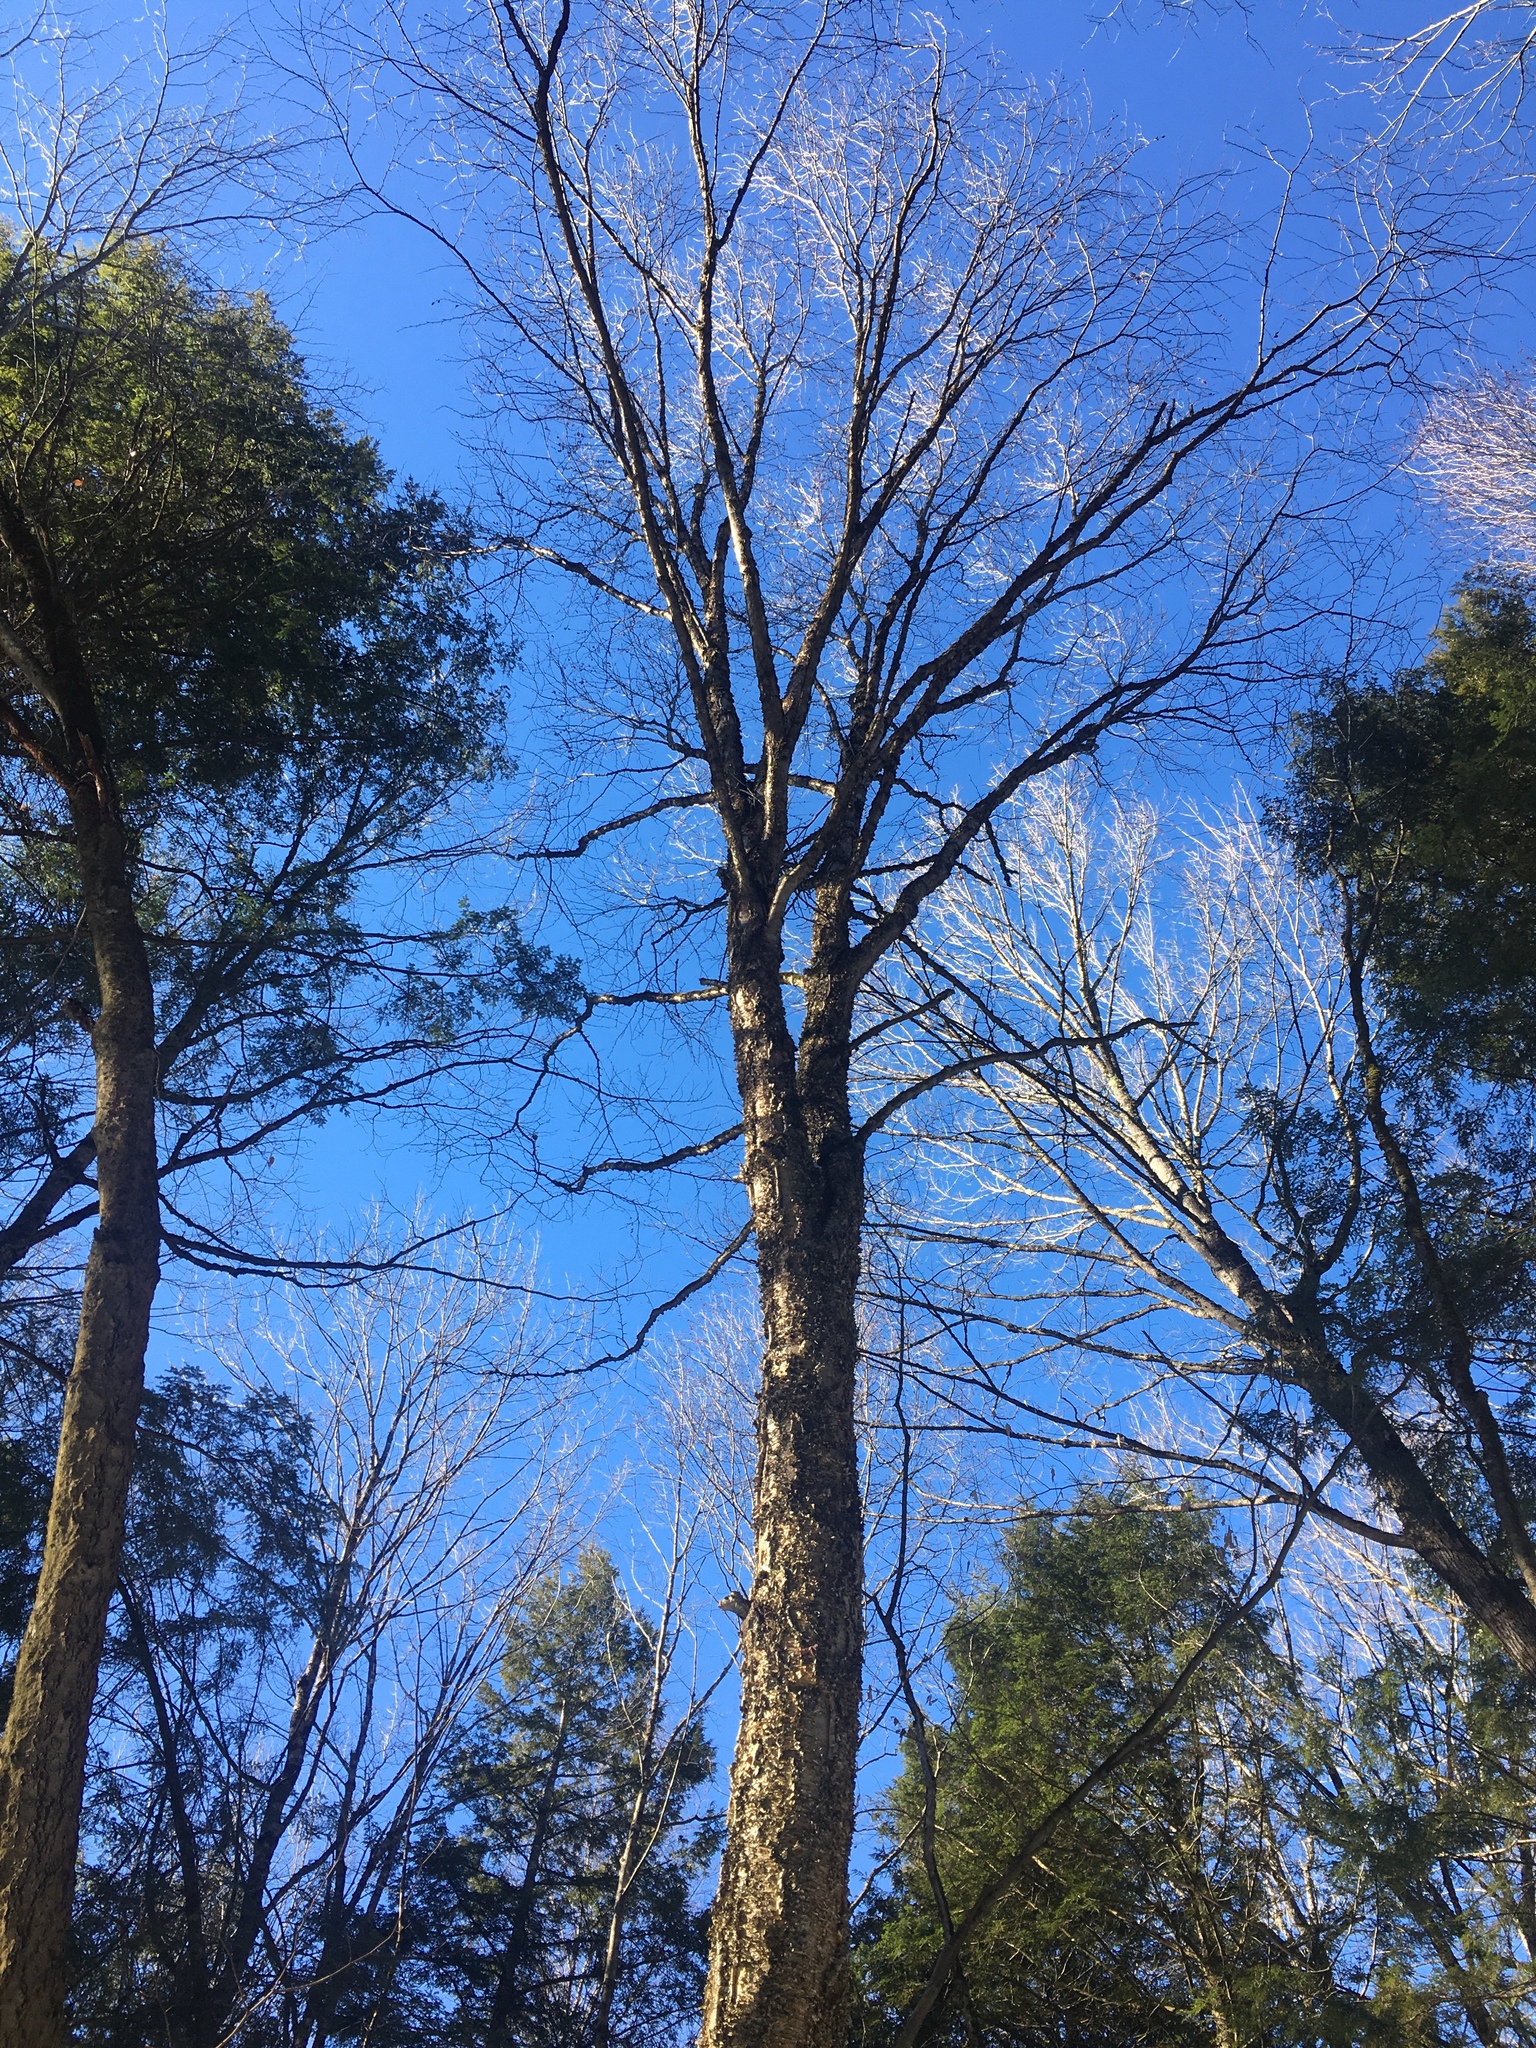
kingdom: Plantae
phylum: Tracheophyta
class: Magnoliopsida
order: Fagales
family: Betulaceae
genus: Betula
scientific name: Betula alleghaniensis
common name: Yellow birch
